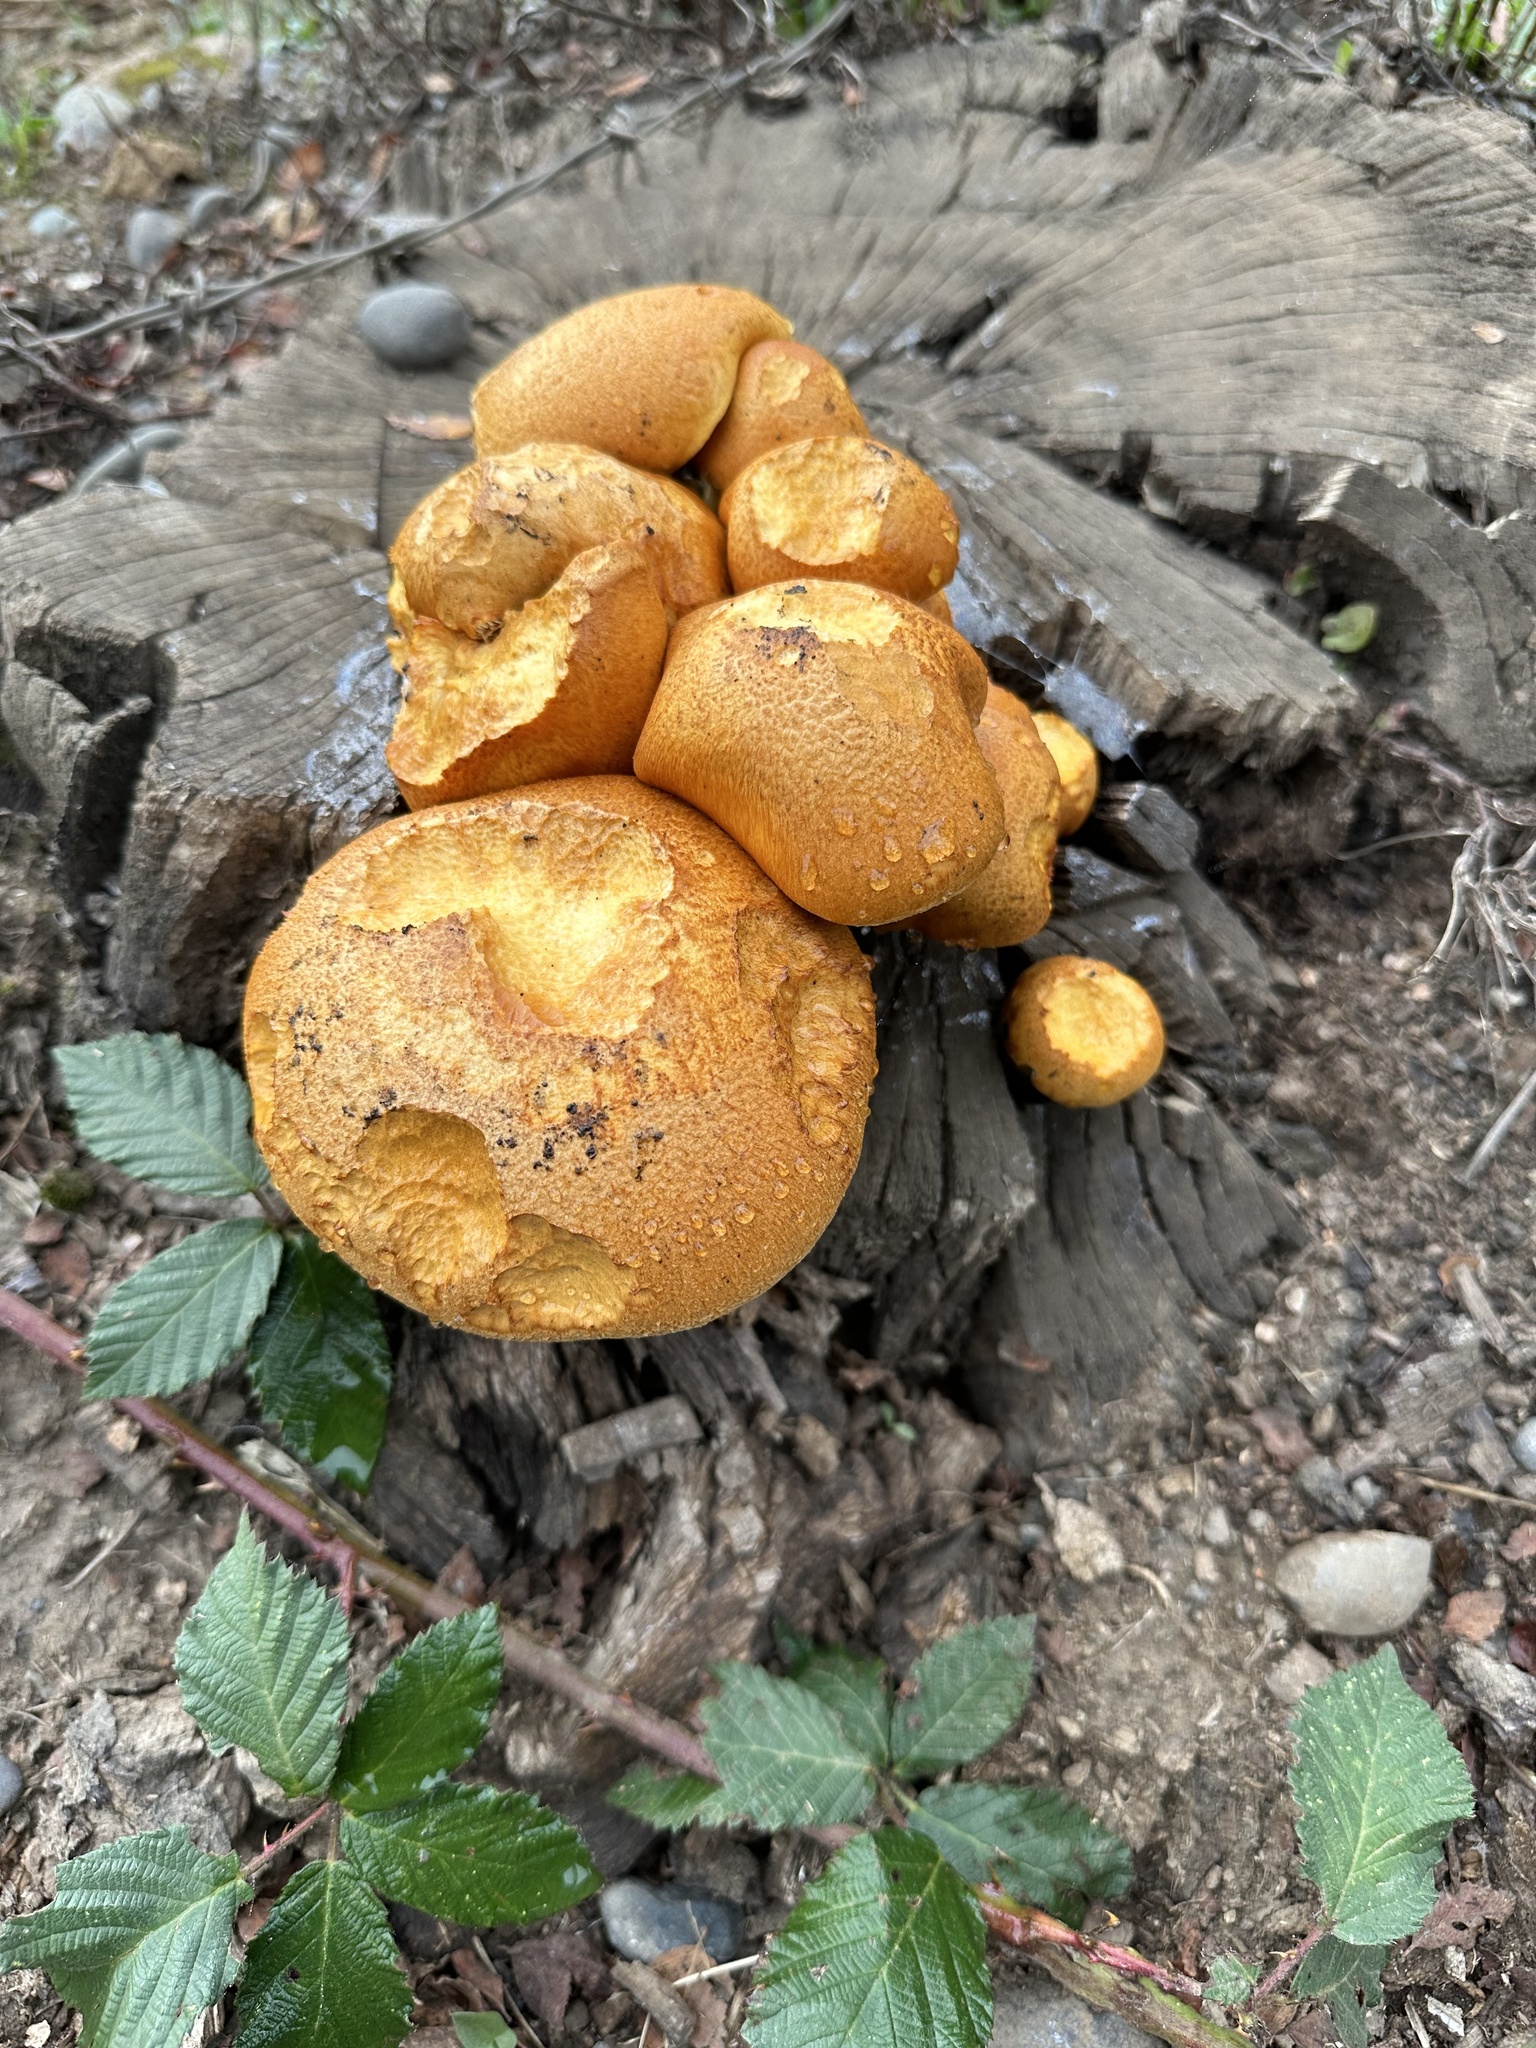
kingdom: Fungi
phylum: Basidiomycota
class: Agaricomycetes
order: Agaricales
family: Hymenogastraceae
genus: Gymnopilus
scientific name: Gymnopilus junonius
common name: Spectacular rustgill
